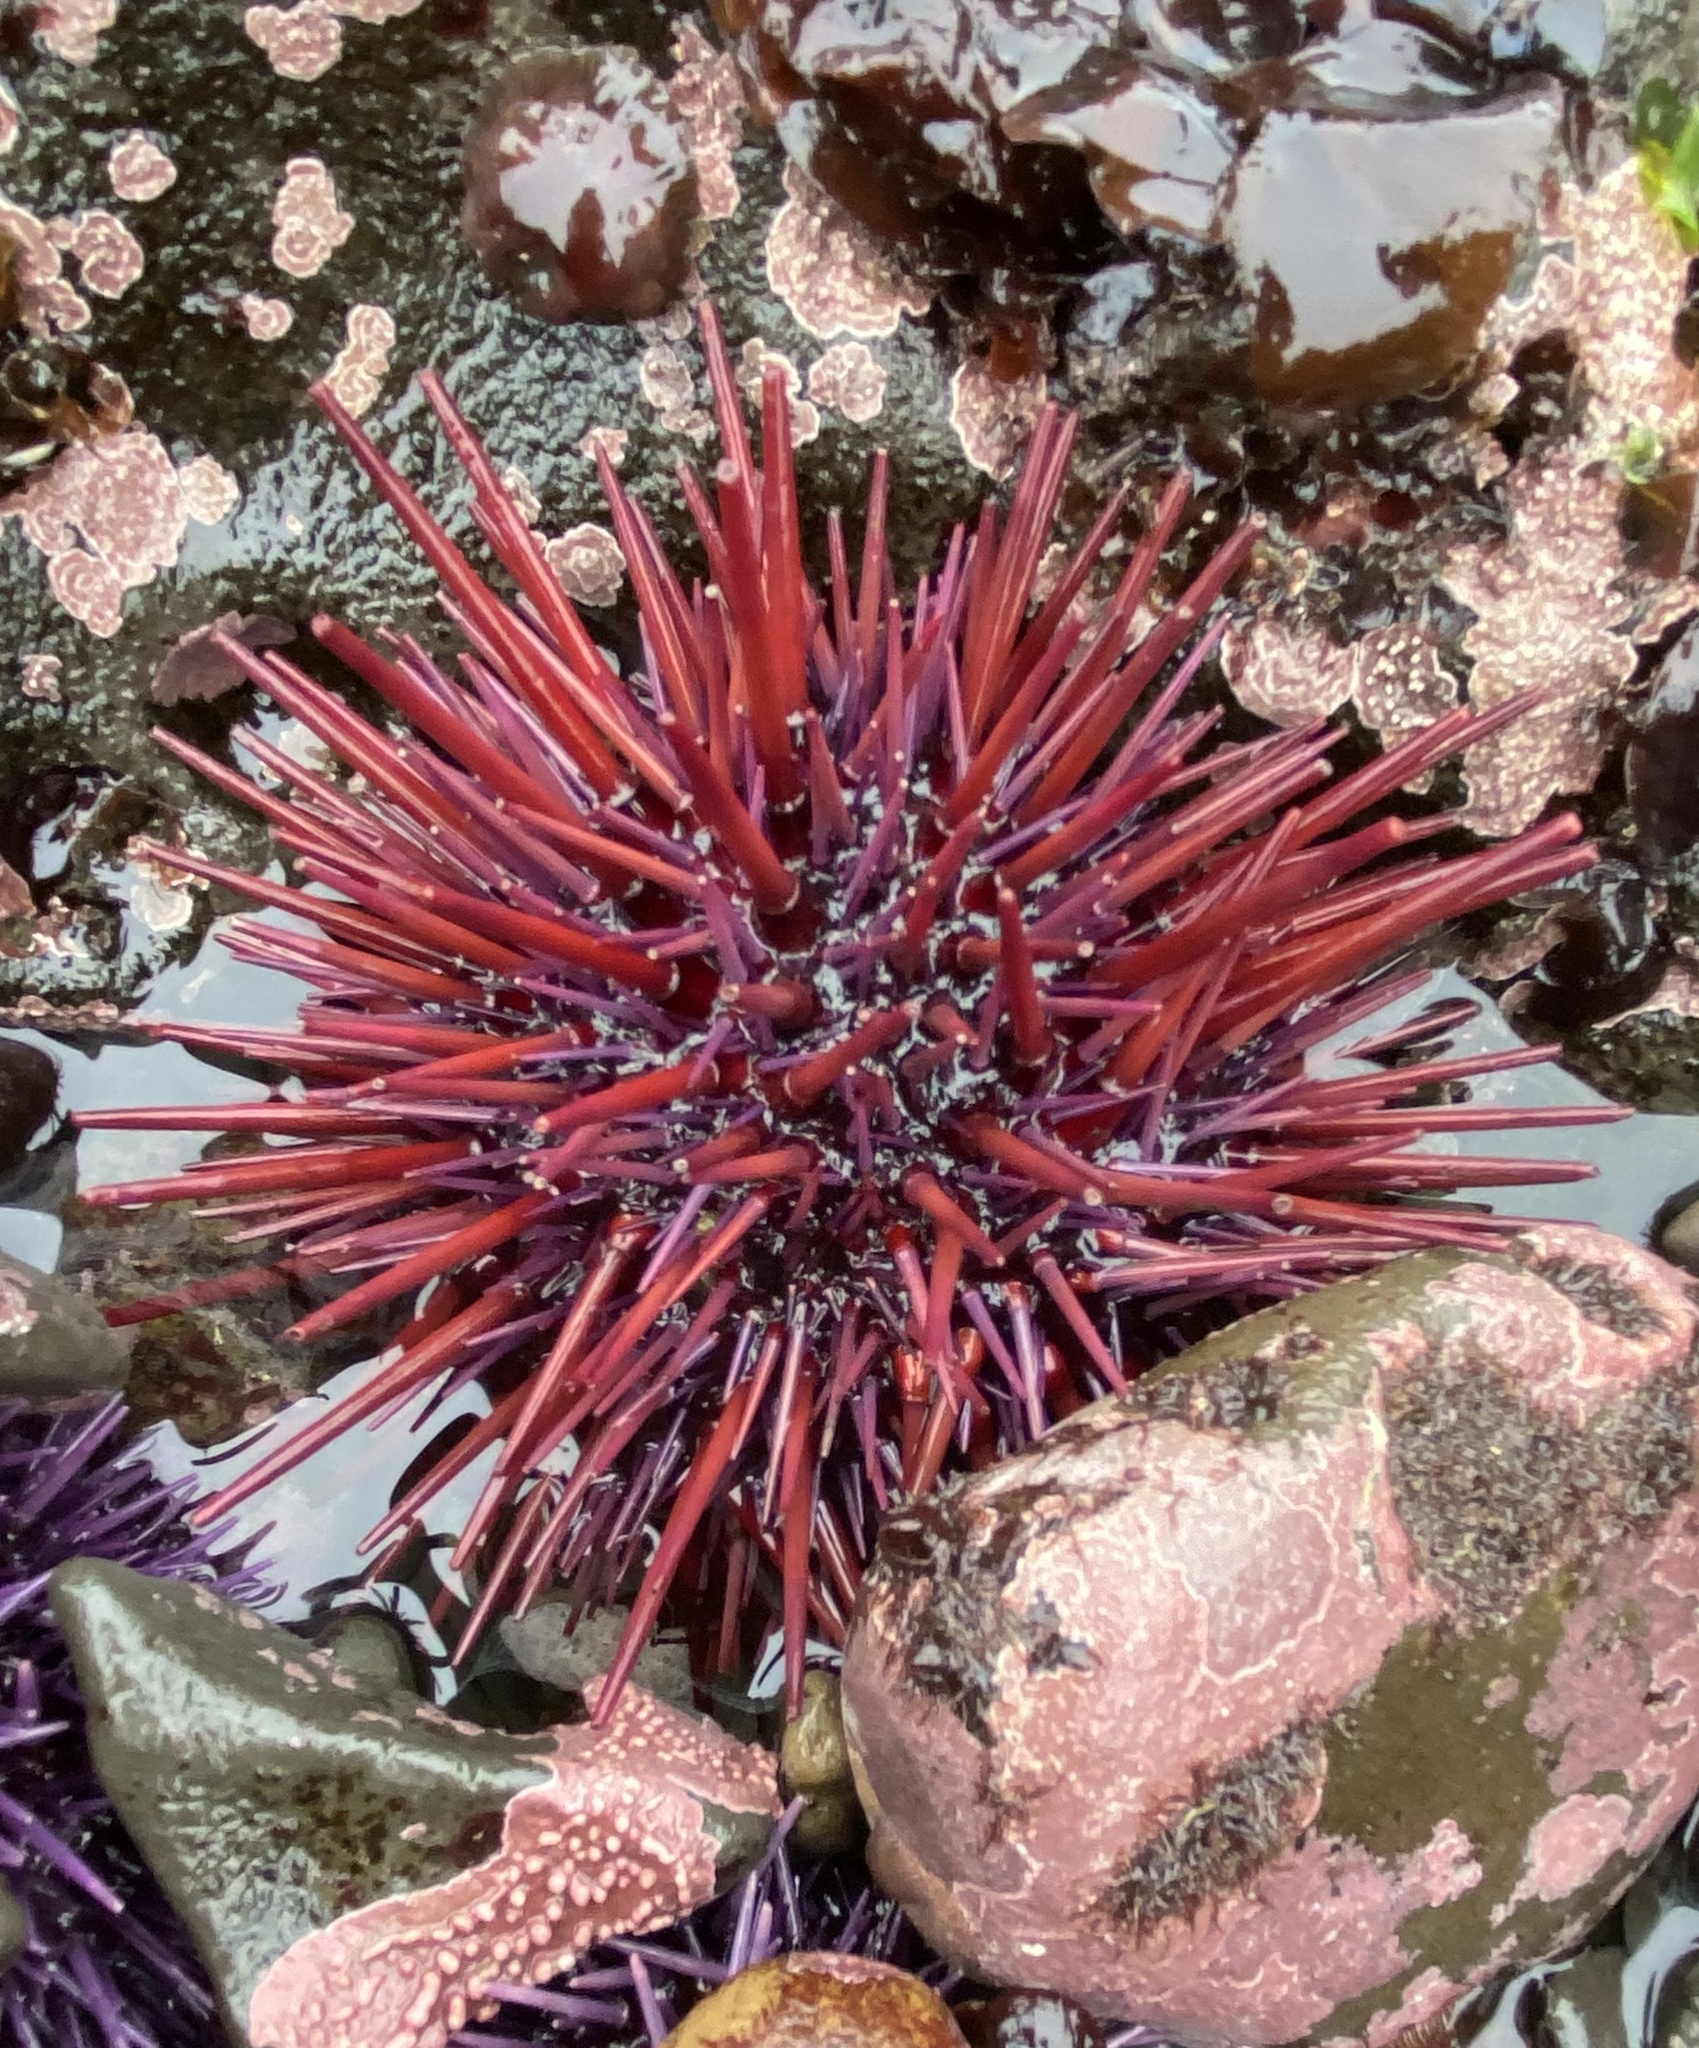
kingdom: Animalia
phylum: Echinodermata
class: Echinoidea
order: Camarodonta
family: Strongylocentrotidae
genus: Mesocentrotus
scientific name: Mesocentrotus franciscanus
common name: Red sea urchin
